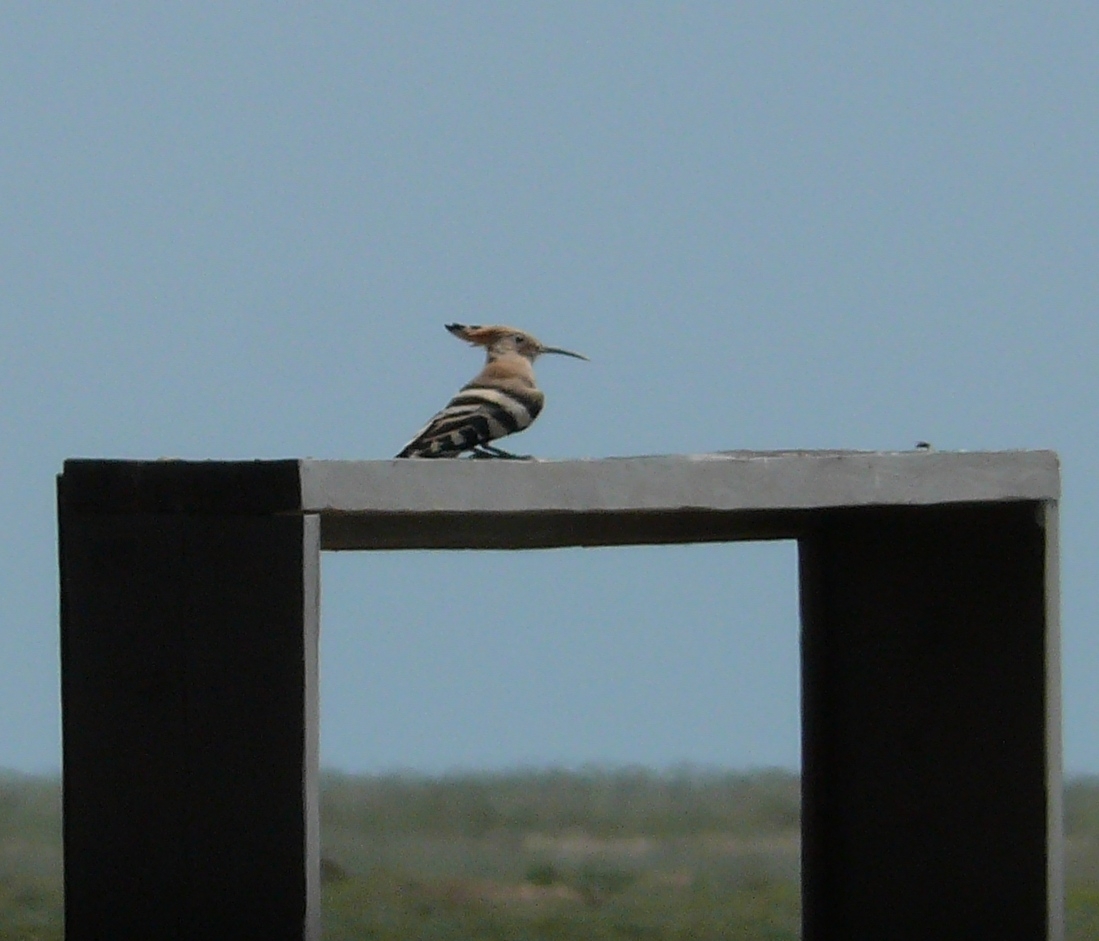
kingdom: Animalia
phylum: Chordata
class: Aves
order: Bucerotiformes
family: Upupidae
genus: Upupa
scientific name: Upupa epops
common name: Eurasian hoopoe
